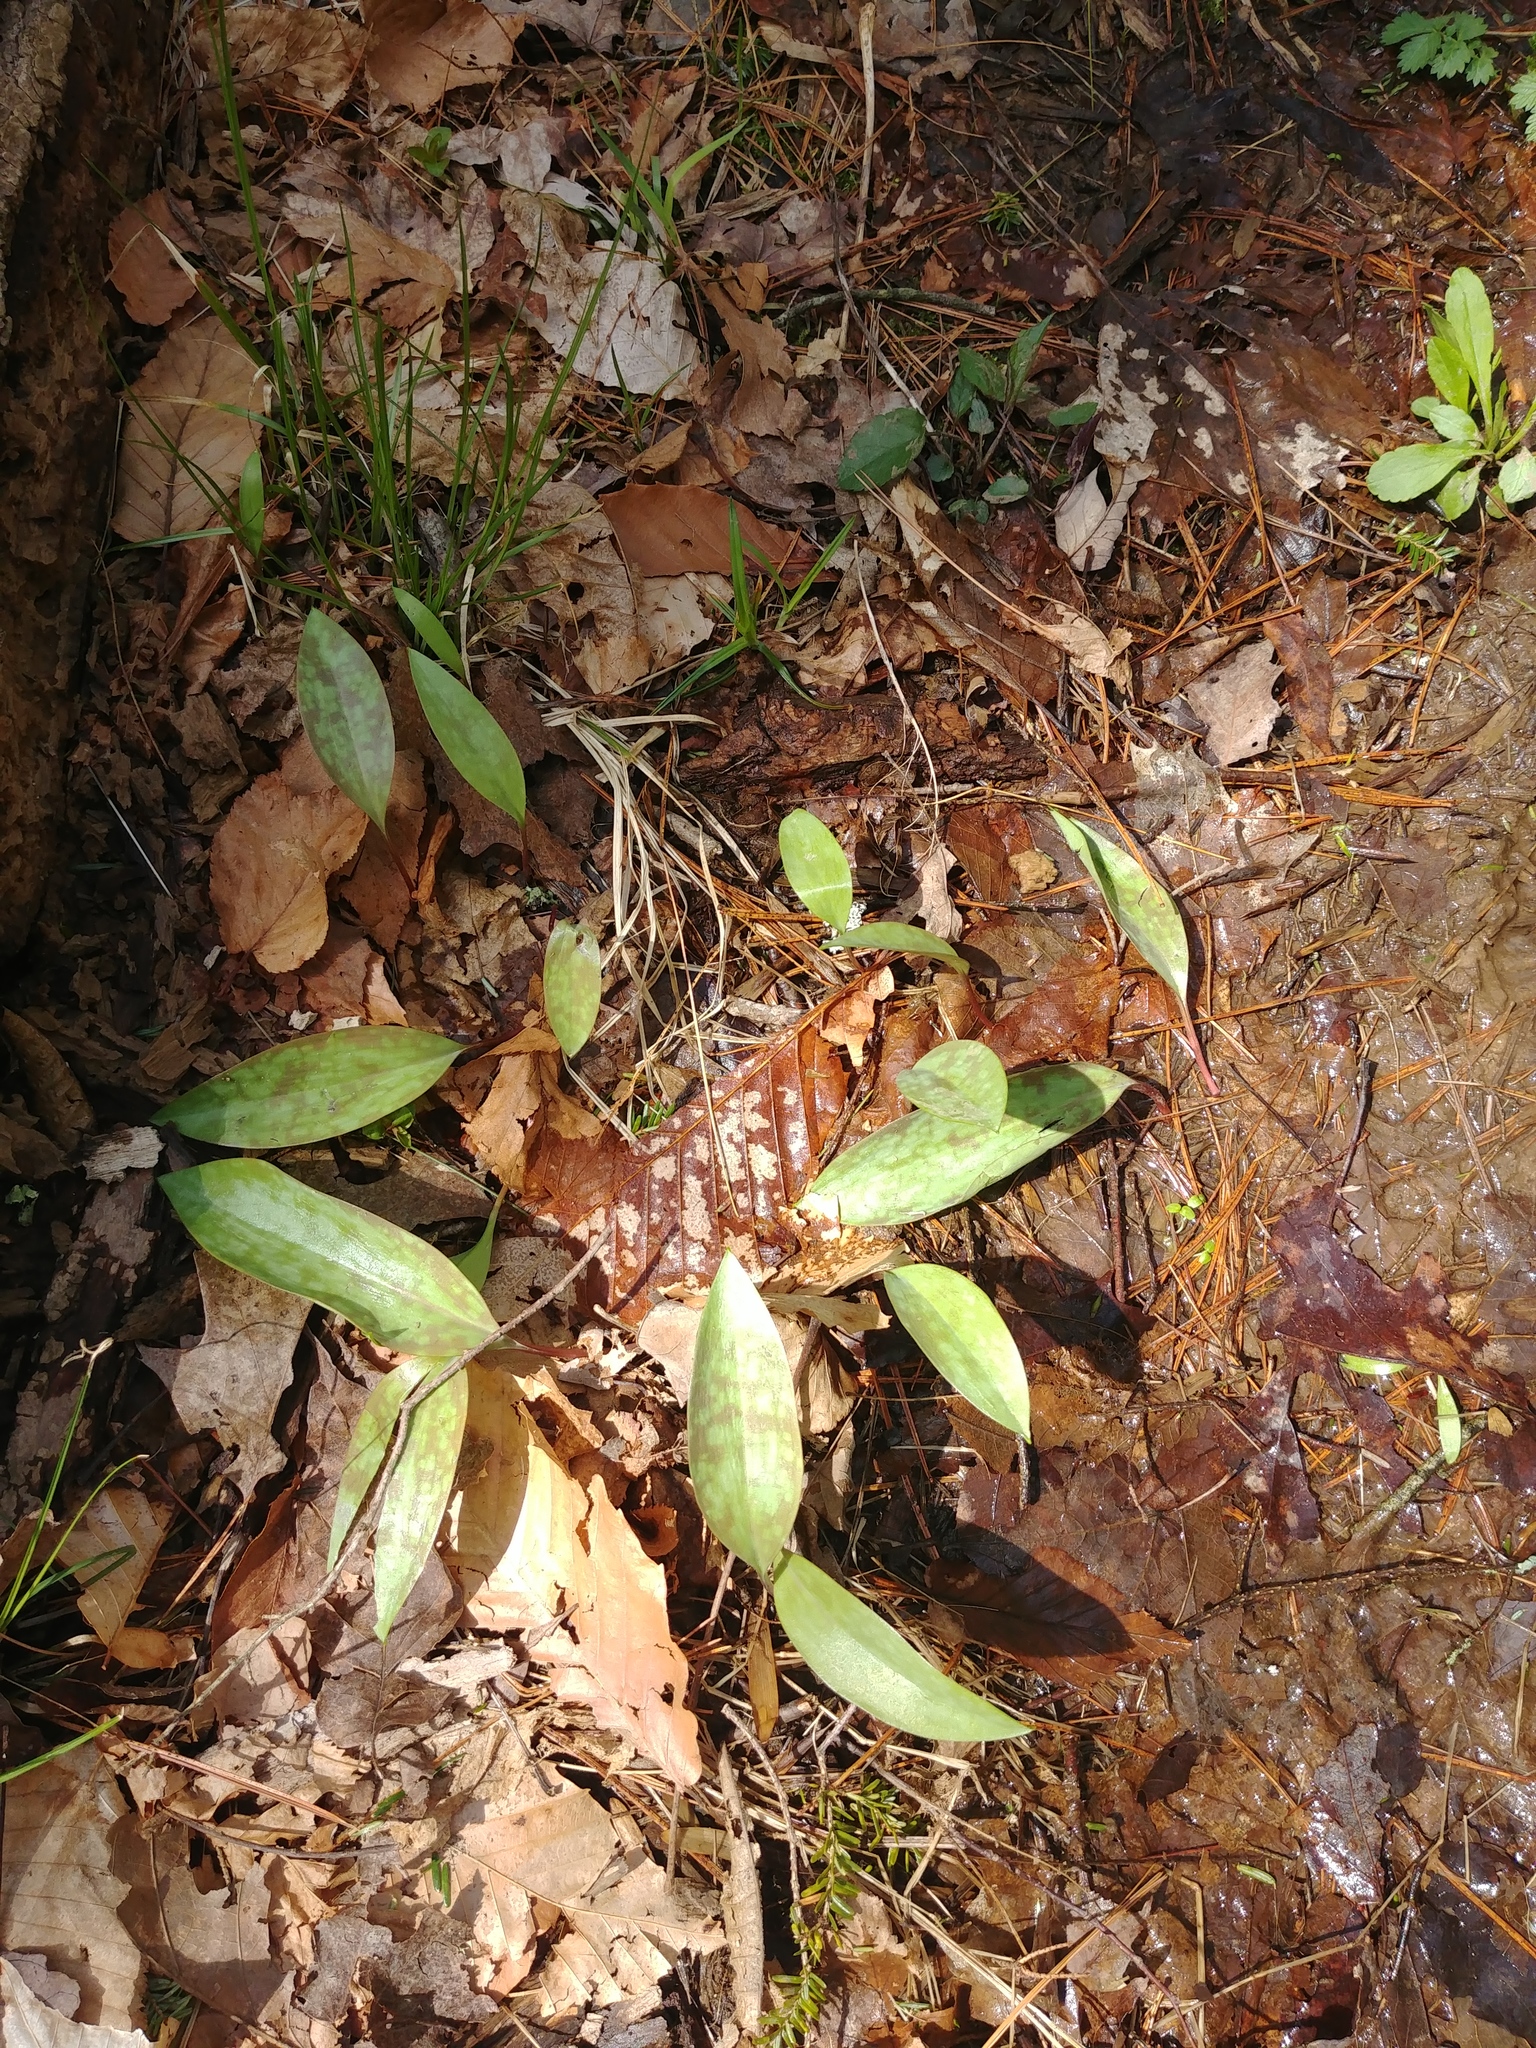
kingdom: Plantae
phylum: Tracheophyta
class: Liliopsida
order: Liliales
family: Liliaceae
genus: Erythronium
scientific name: Erythronium americanum
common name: Yellow adder's-tongue
